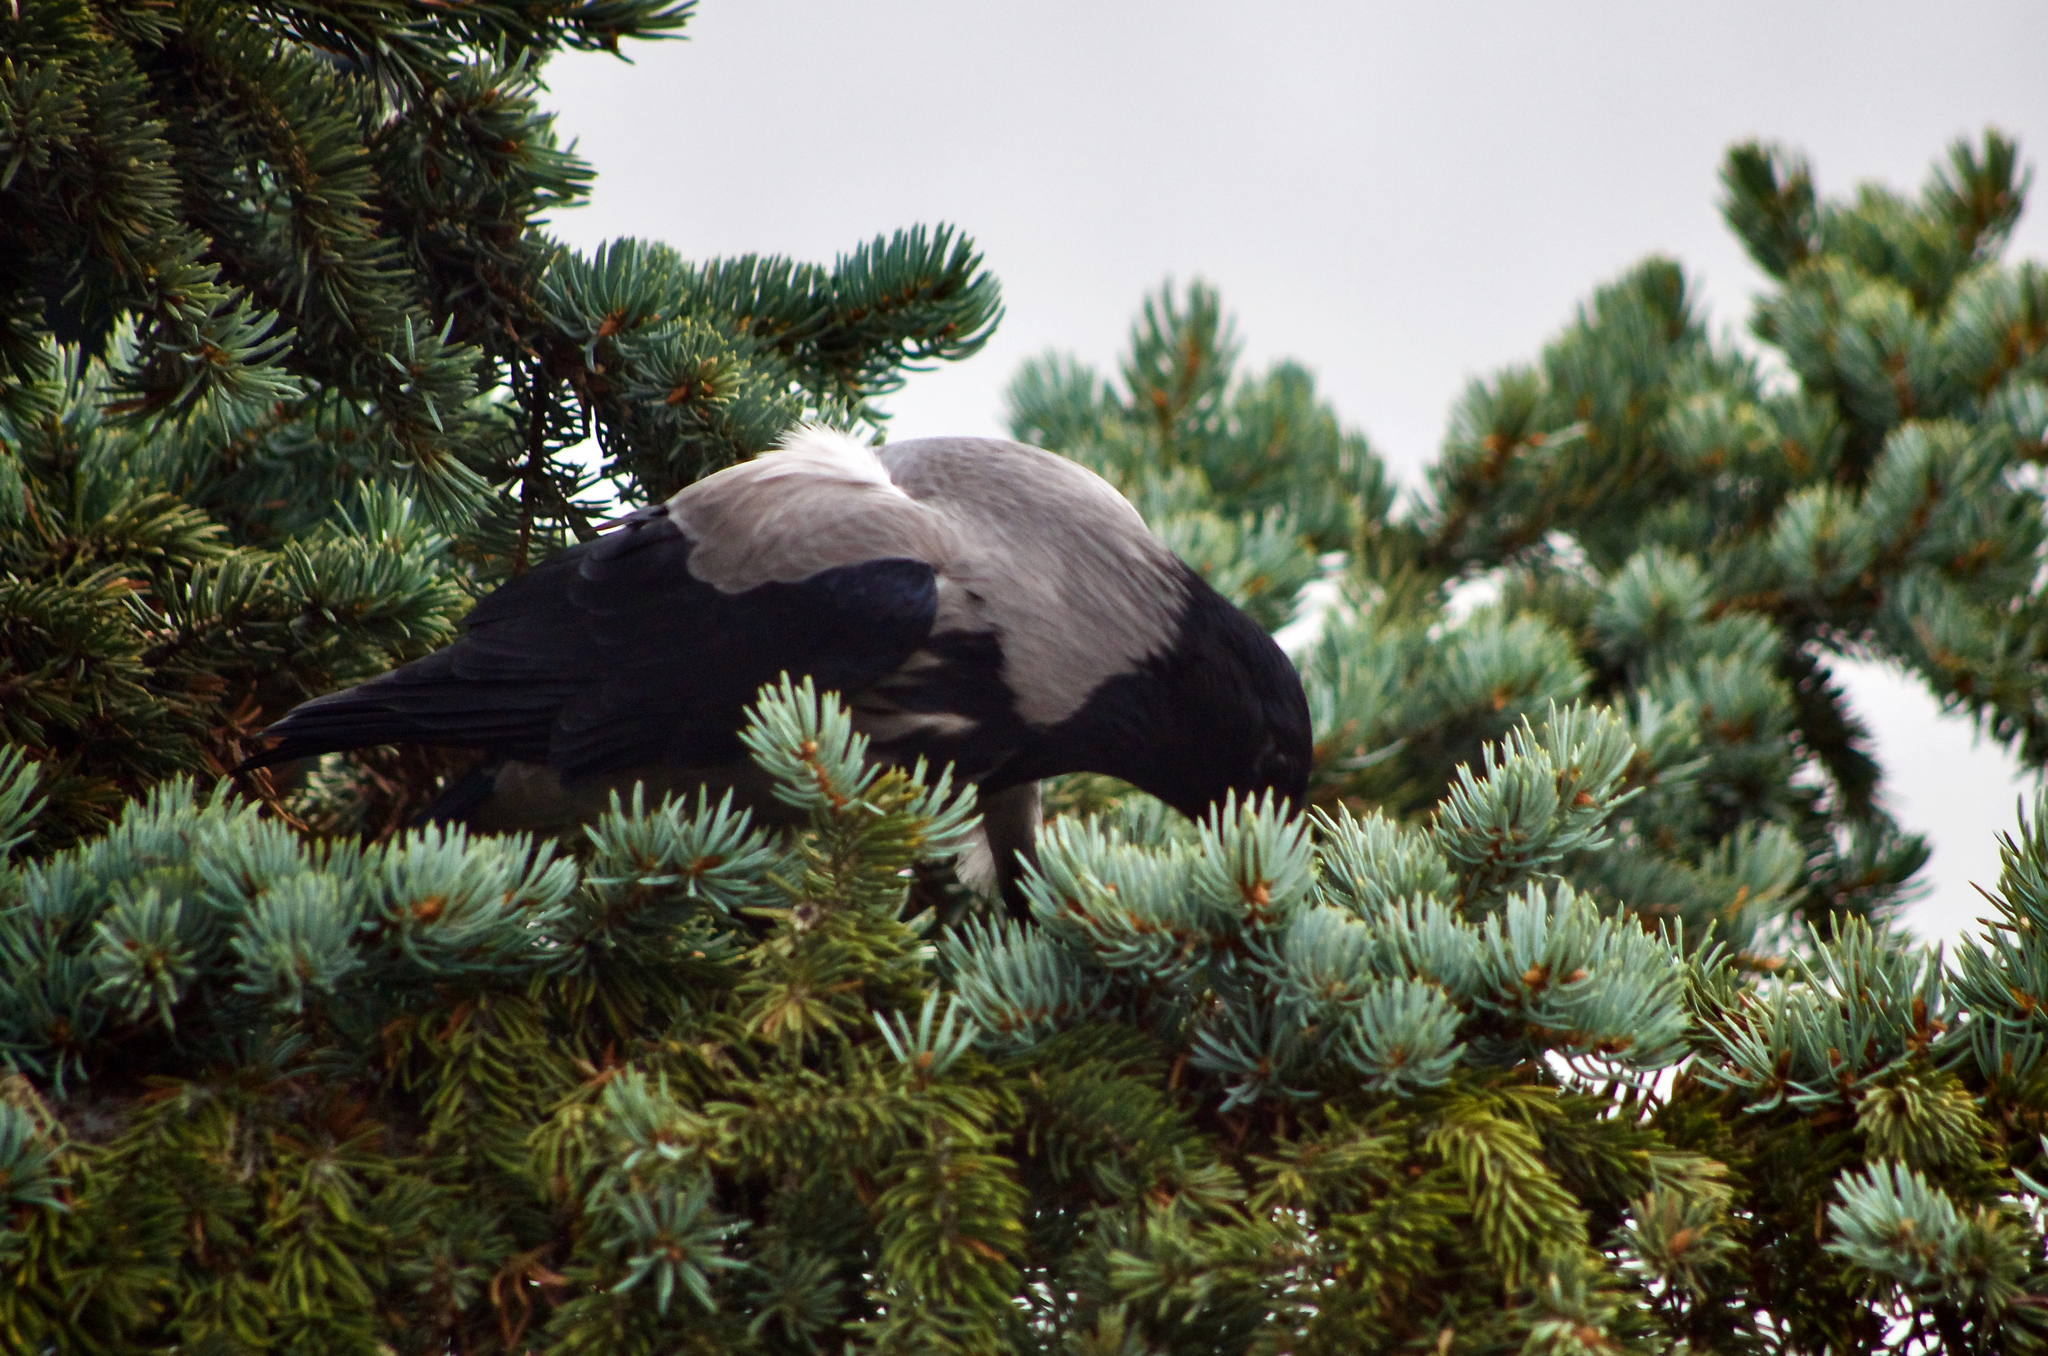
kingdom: Animalia
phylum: Chordata
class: Aves
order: Passeriformes
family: Corvidae
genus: Corvus
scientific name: Corvus cornix
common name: Hooded crow
